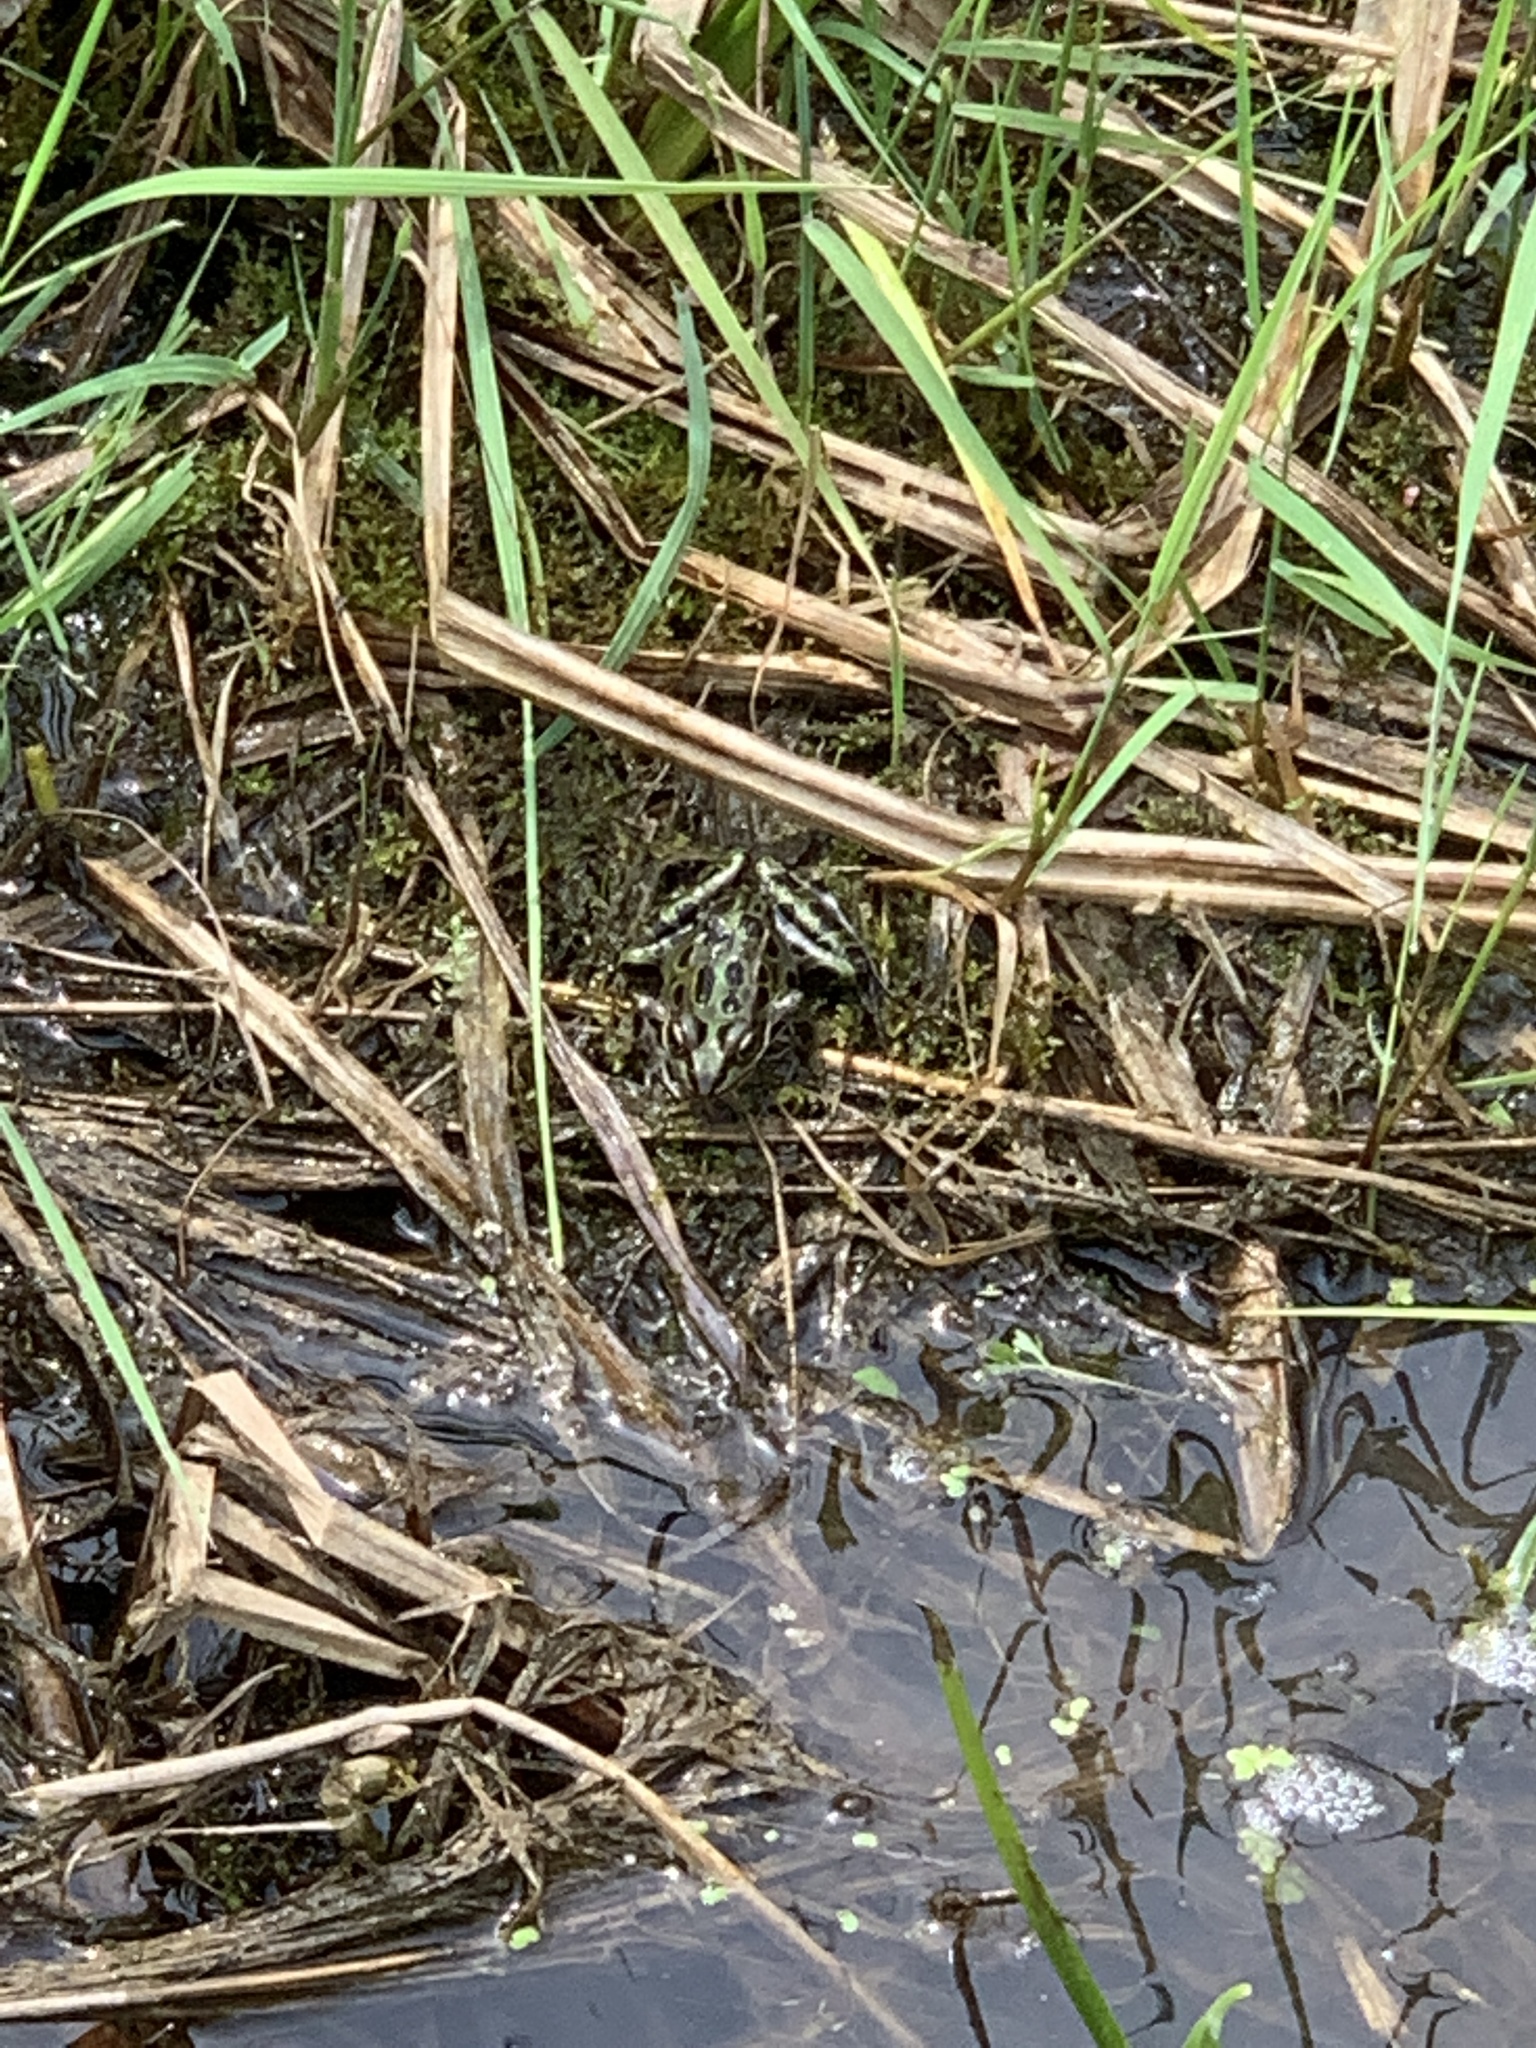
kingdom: Animalia
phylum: Chordata
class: Amphibia
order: Anura
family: Ranidae
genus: Lithobates
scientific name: Lithobates pipiens
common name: Northern leopard frog
